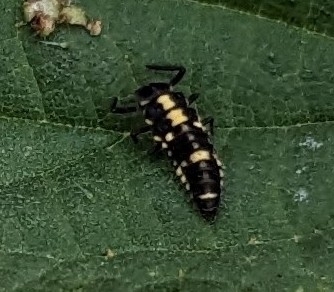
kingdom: Animalia
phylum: Arthropoda
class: Insecta
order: Coleoptera
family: Coccinellidae
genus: Propylaea
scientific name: Propylaea quatuordecimpunctata
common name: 14-spotted ladybird beetle
